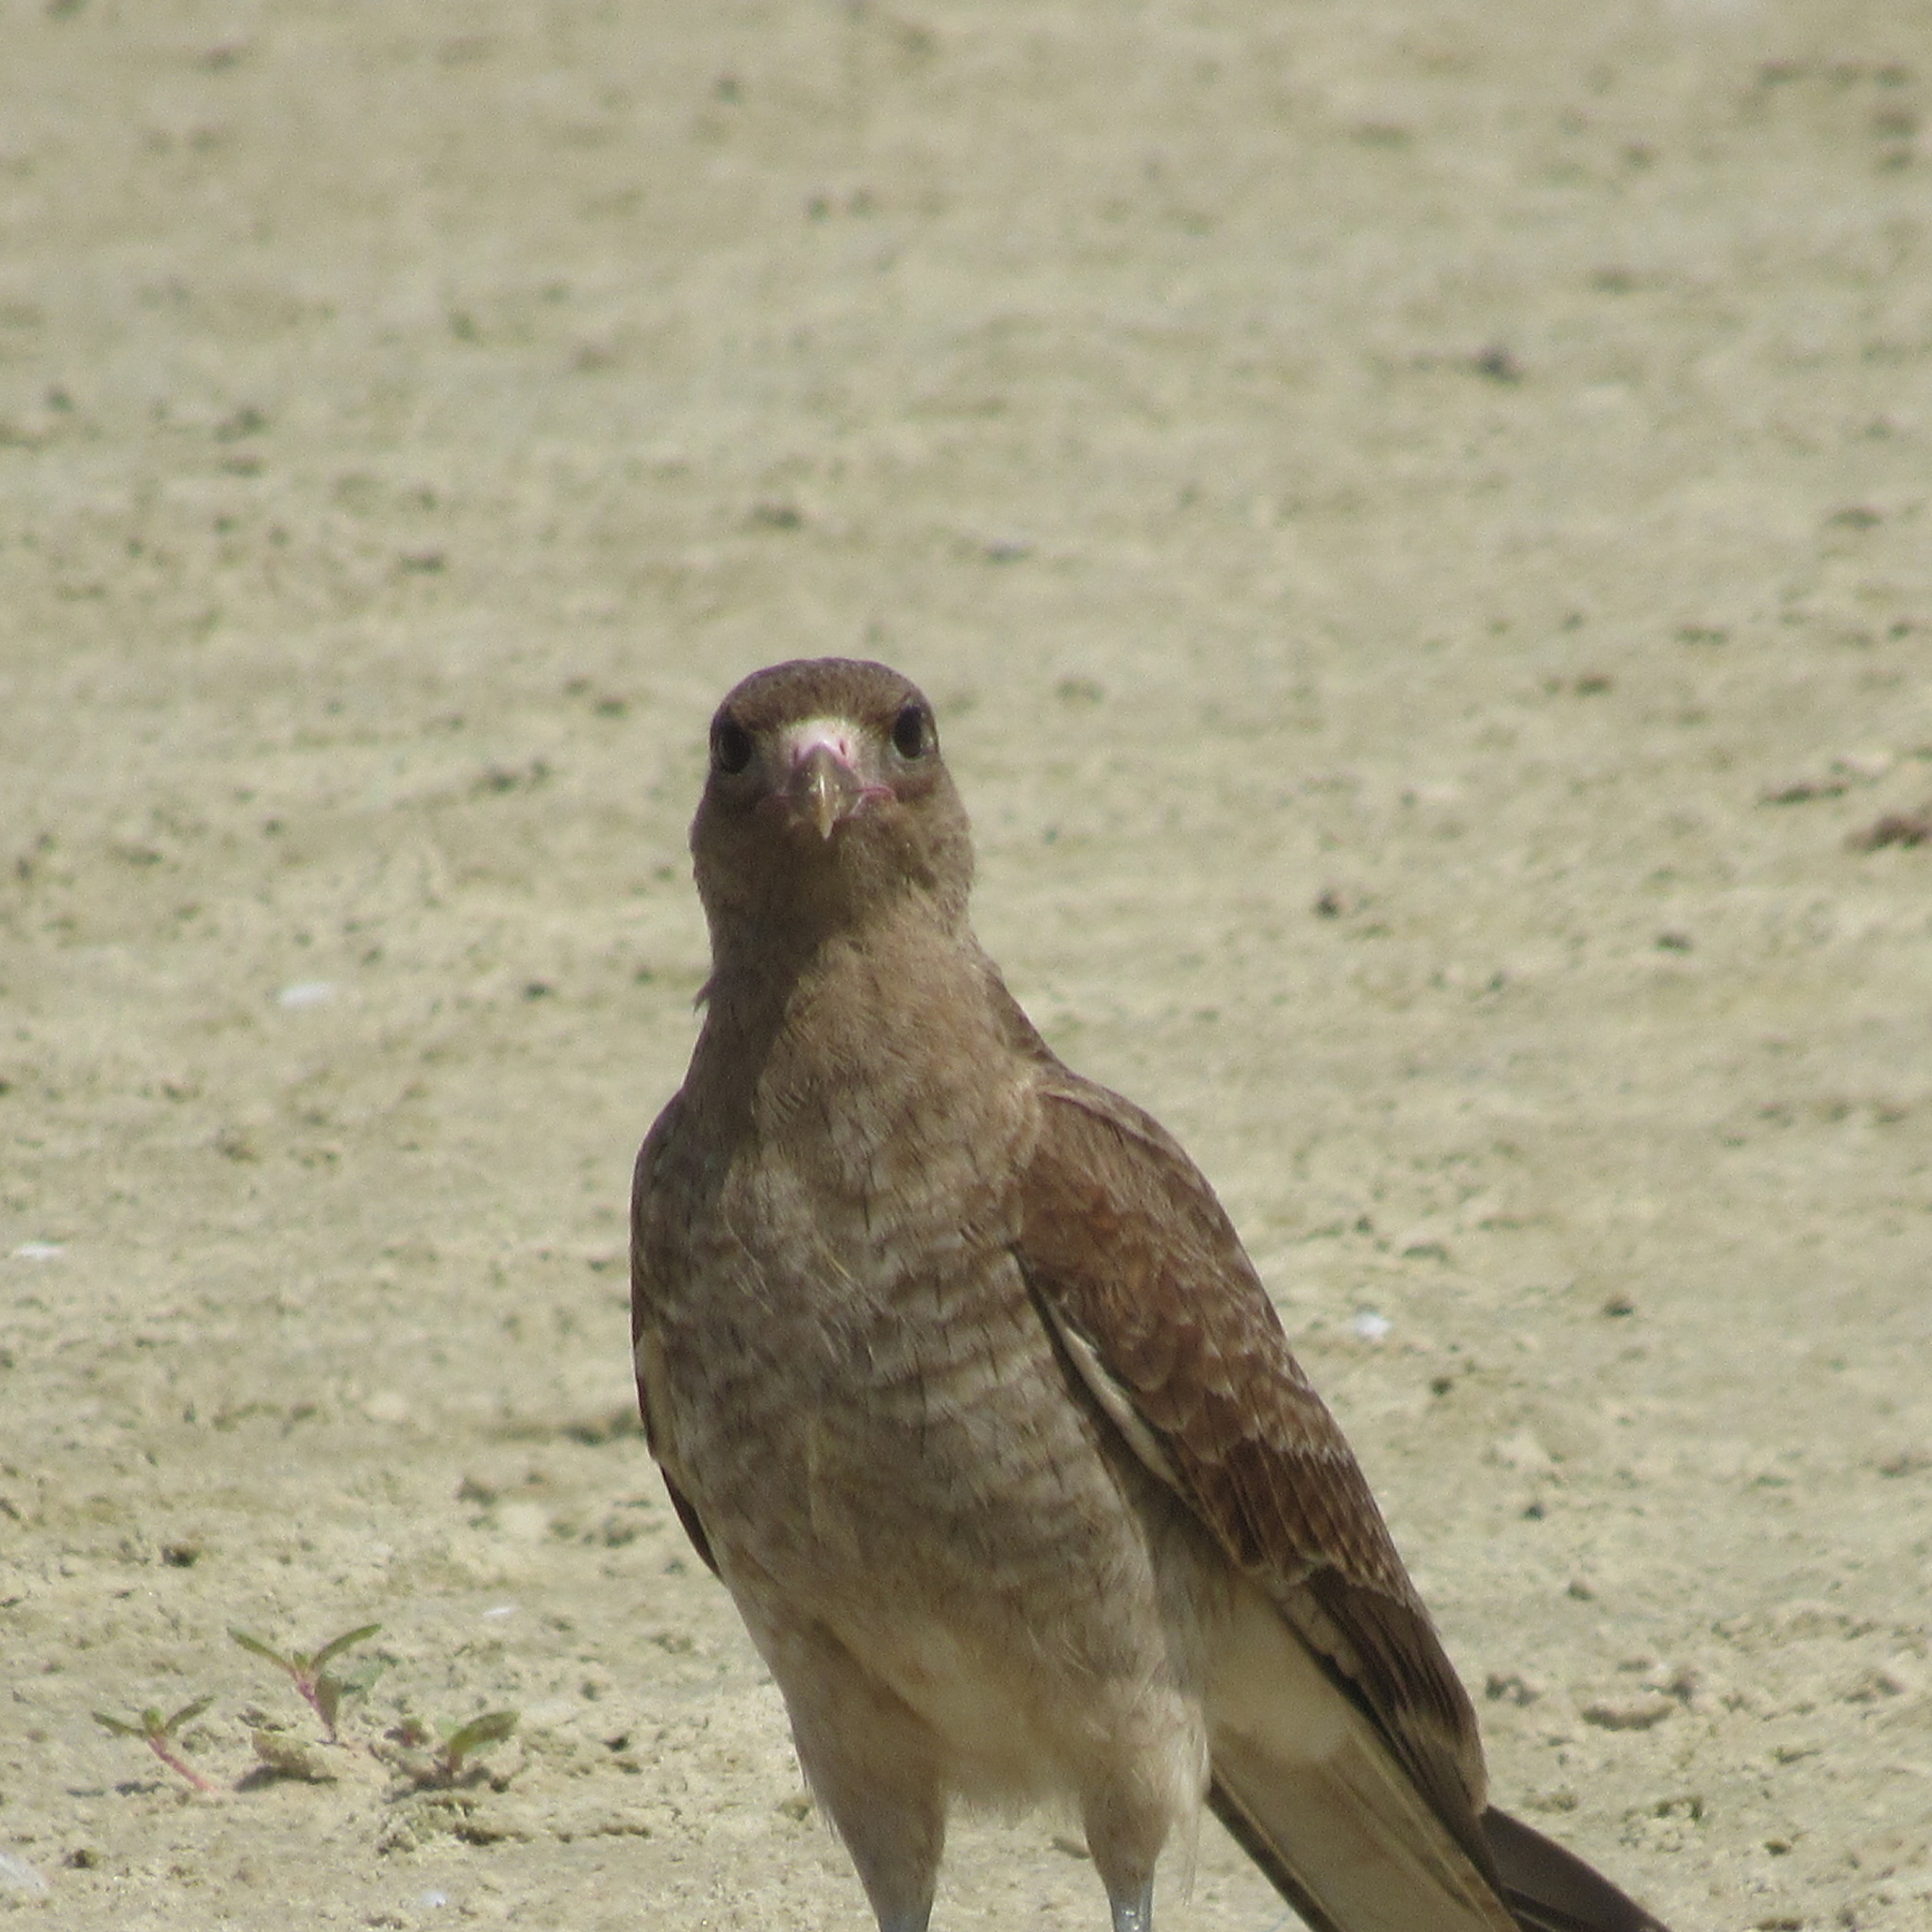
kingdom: Animalia
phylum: Chordata
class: Aves
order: Falconiformes
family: Falconidae
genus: Daptrius
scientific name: Daptrius
